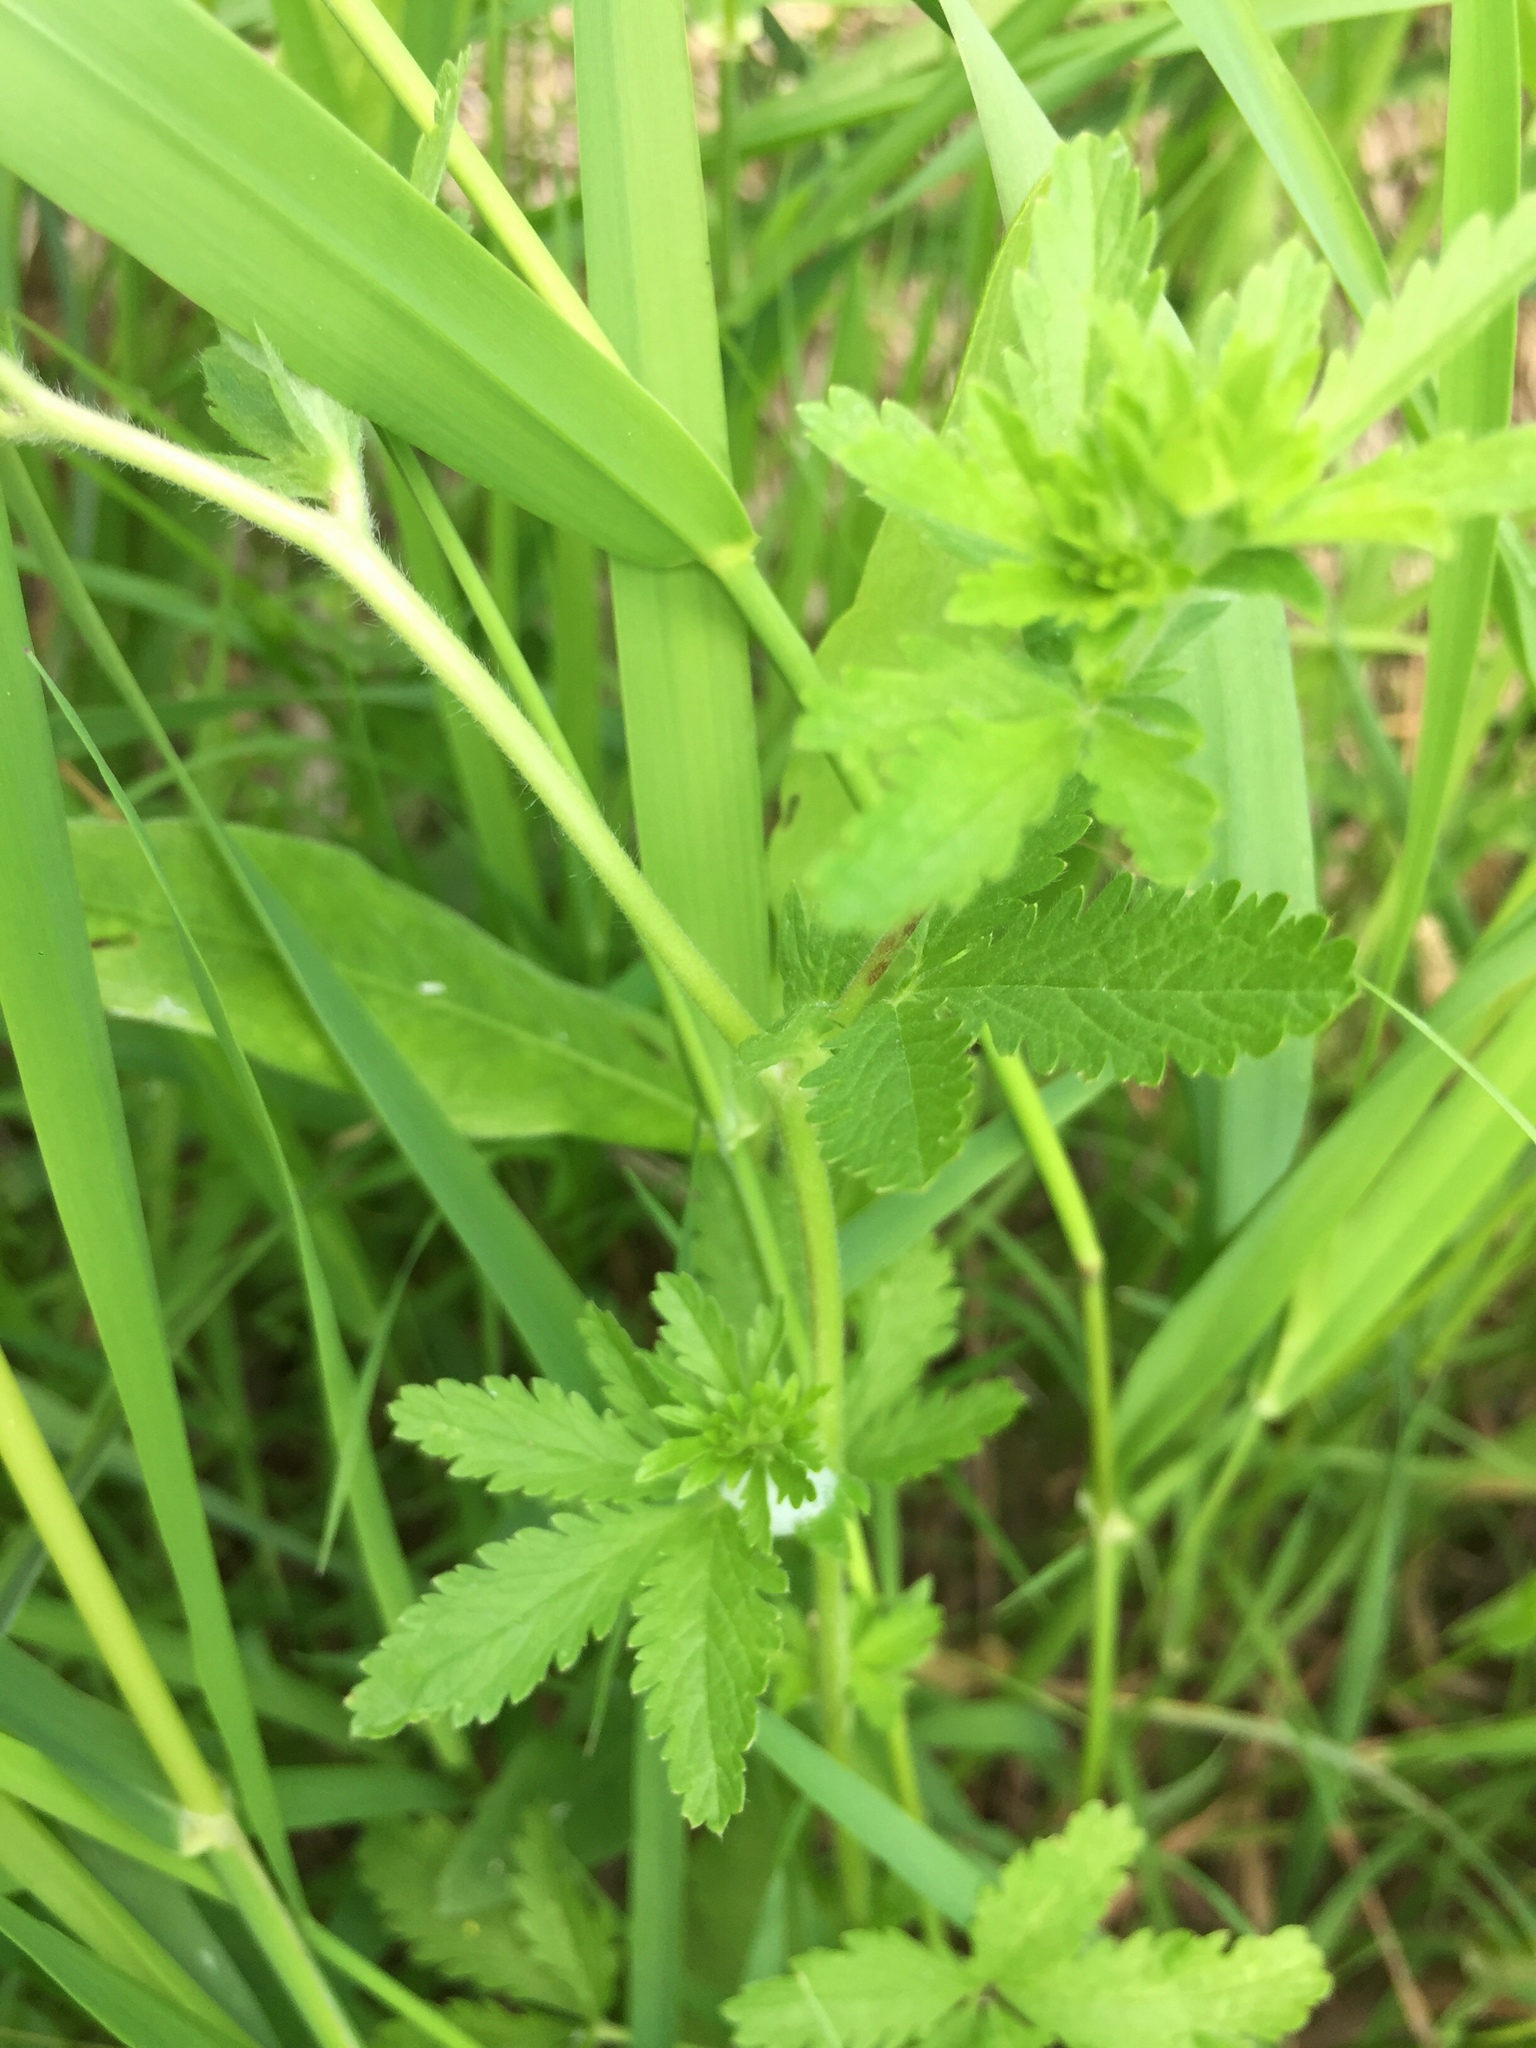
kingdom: Plantae
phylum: Tracheophyta
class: Magnoliopsida
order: Rosales
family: Rosaceae
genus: Potentilla
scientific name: Potentilla norvegica
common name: Ternate-leaved cinquefoil
